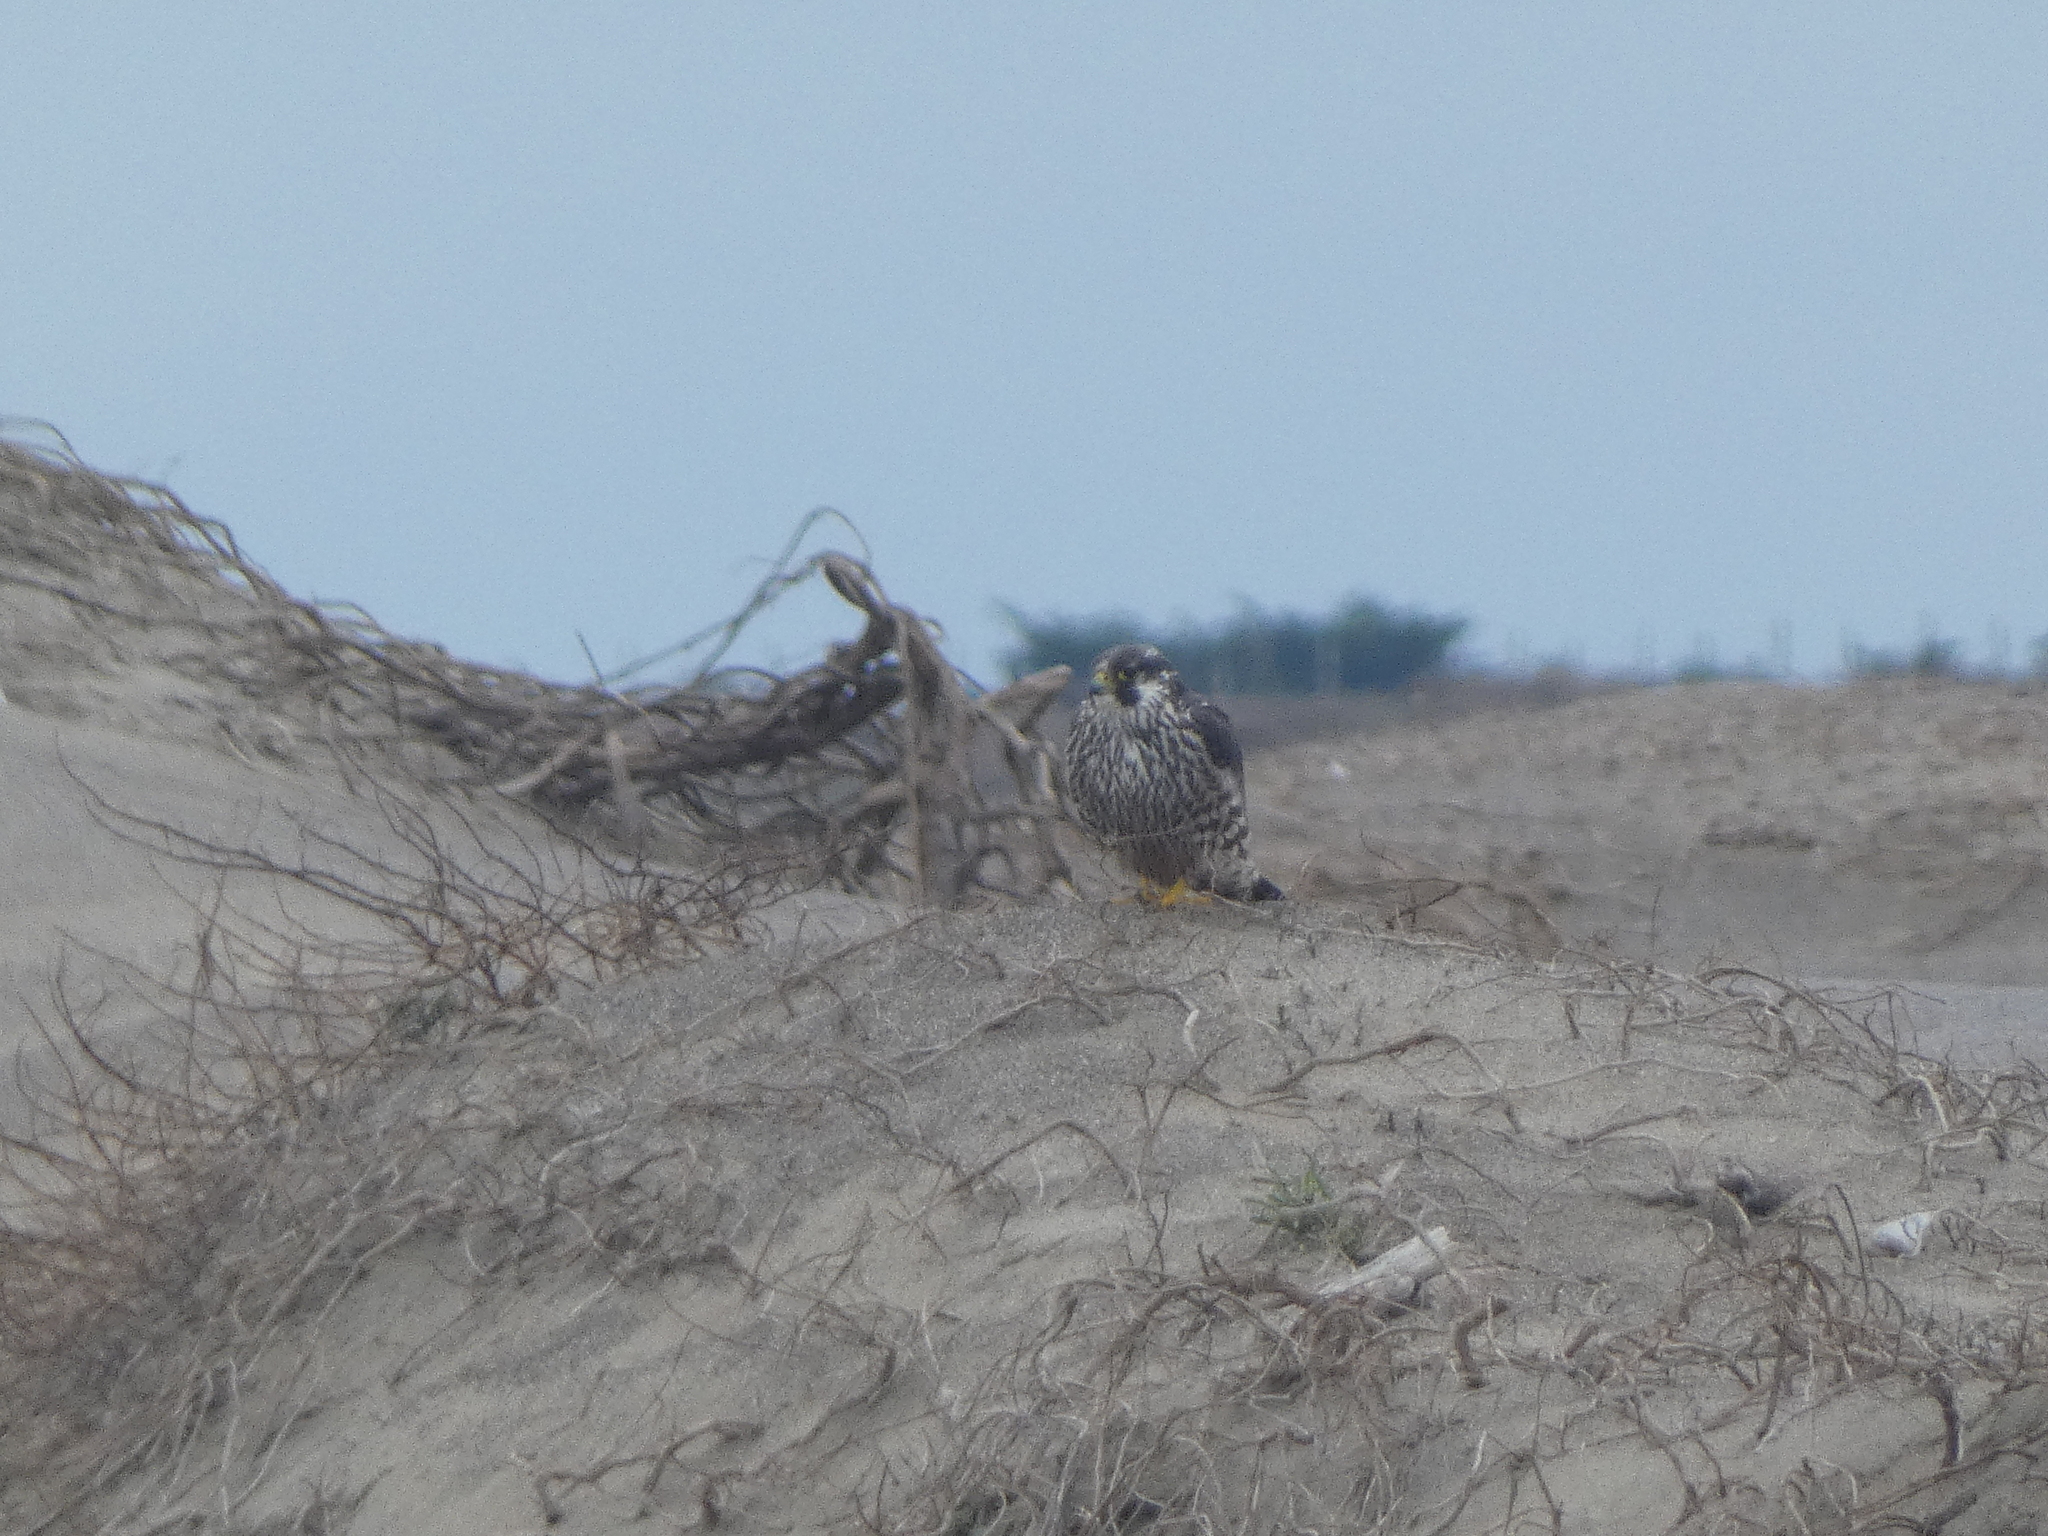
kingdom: Animalia
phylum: Chordata
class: Aves
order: Falconiformes
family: Falconidae
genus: Falco
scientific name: Falco peregrinus
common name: Peregrine falcon
